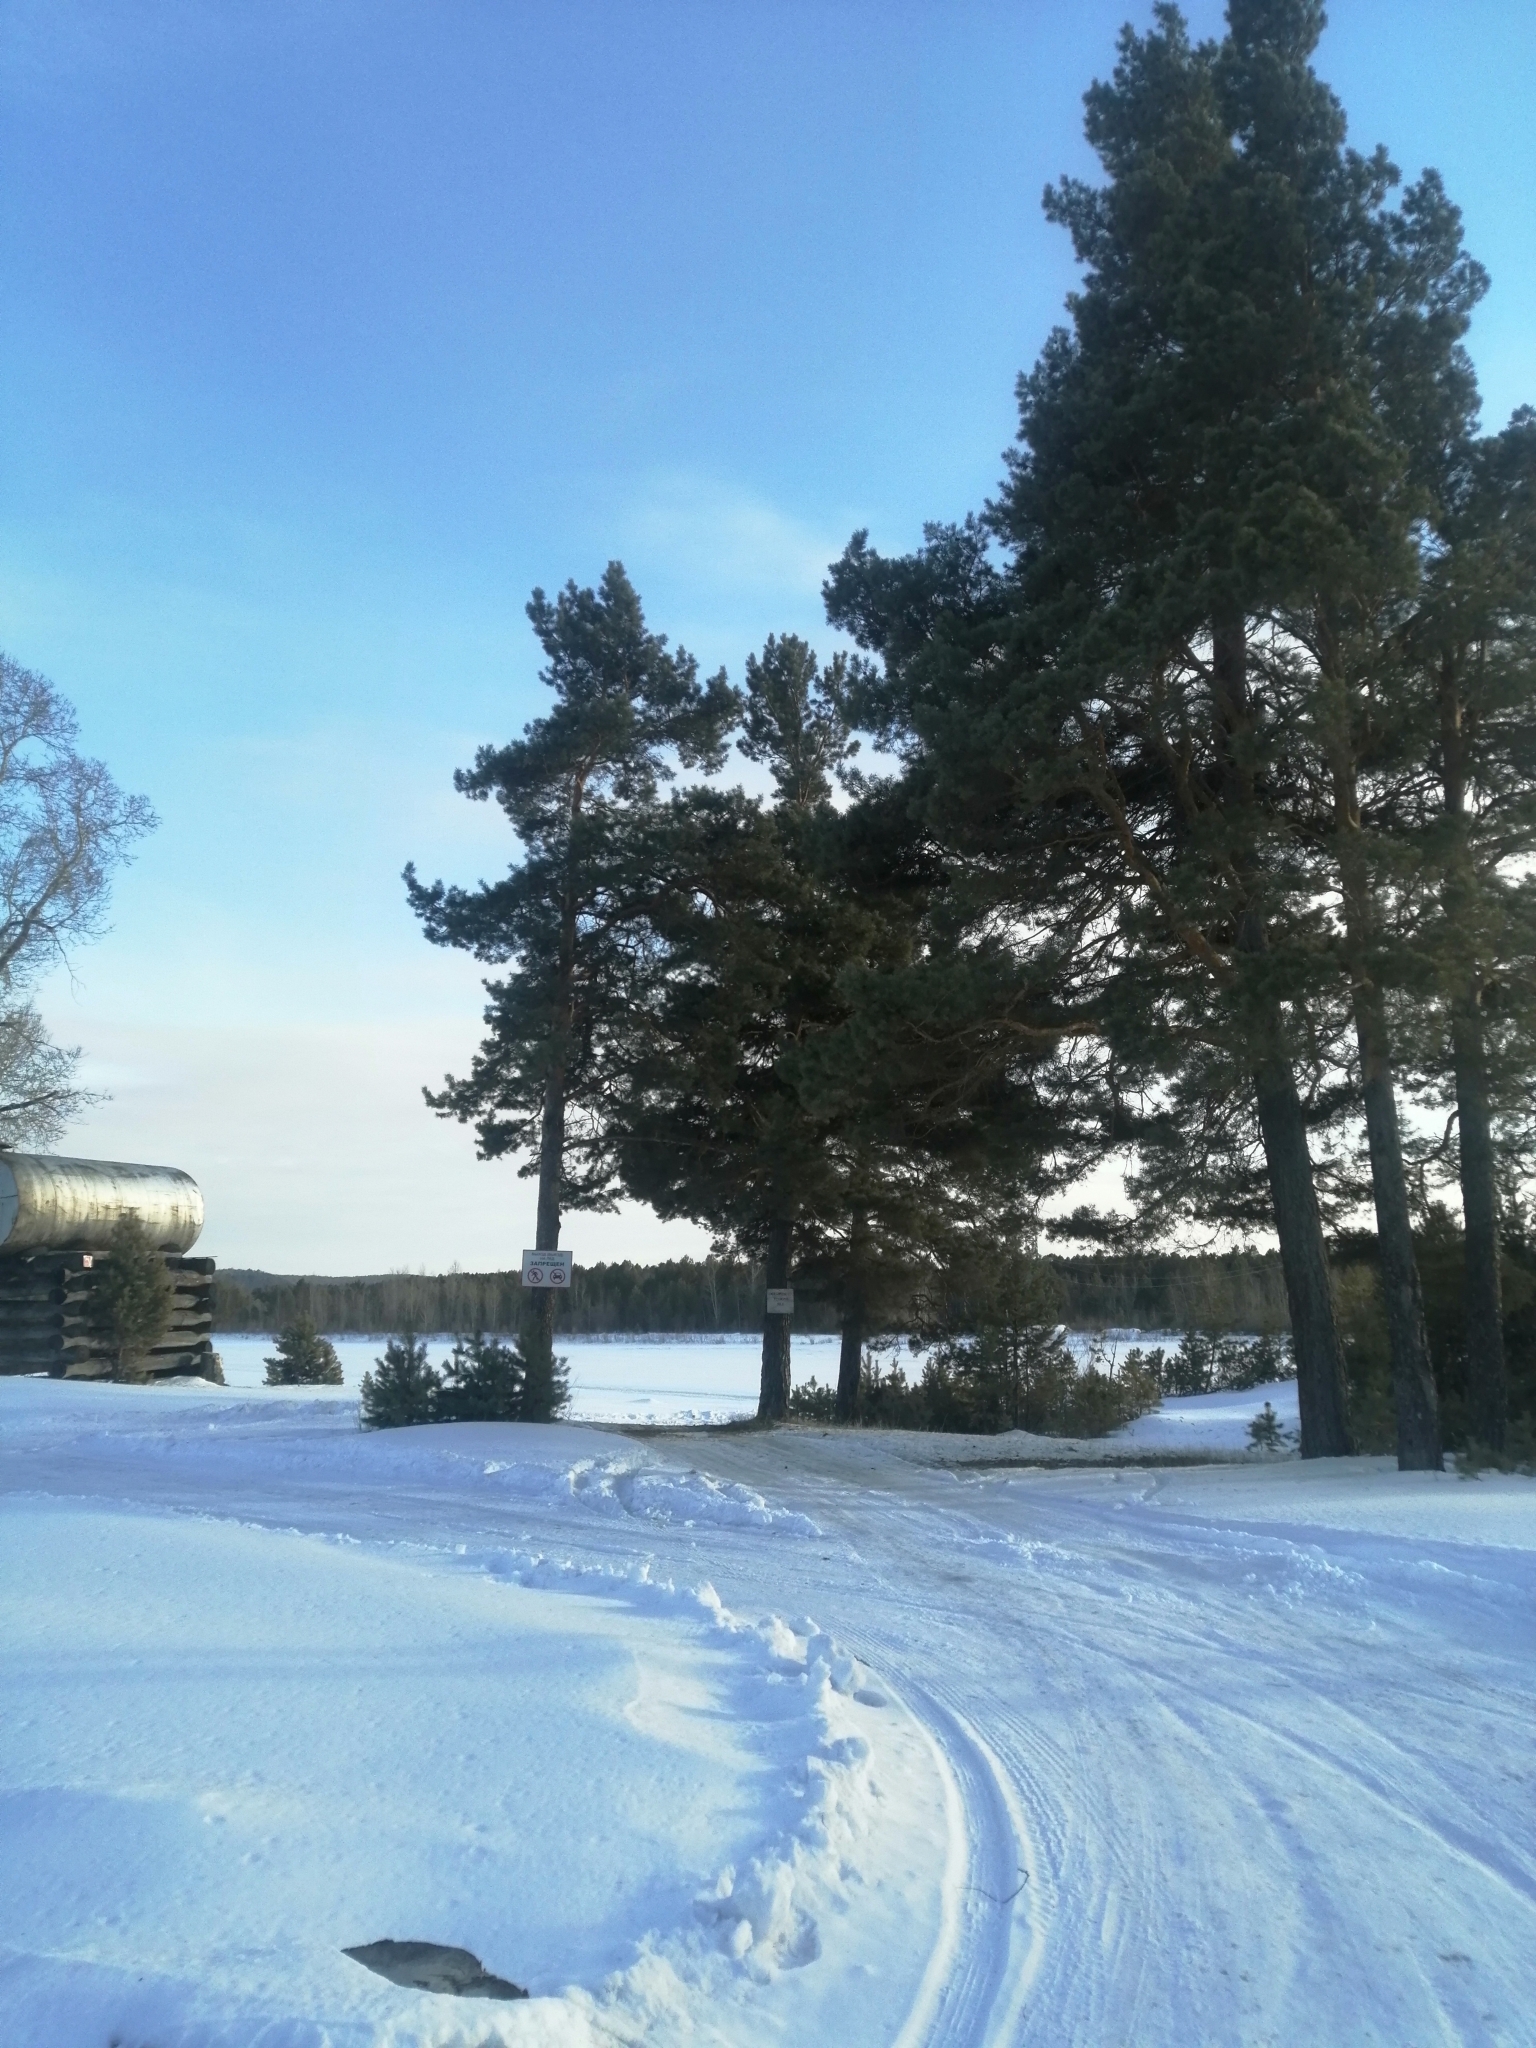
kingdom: Plantae
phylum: Tracheophyta
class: Pinopsida
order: Pinales
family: Pinaceae
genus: Pinus
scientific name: Pinus sylvestris
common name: Scots pine
